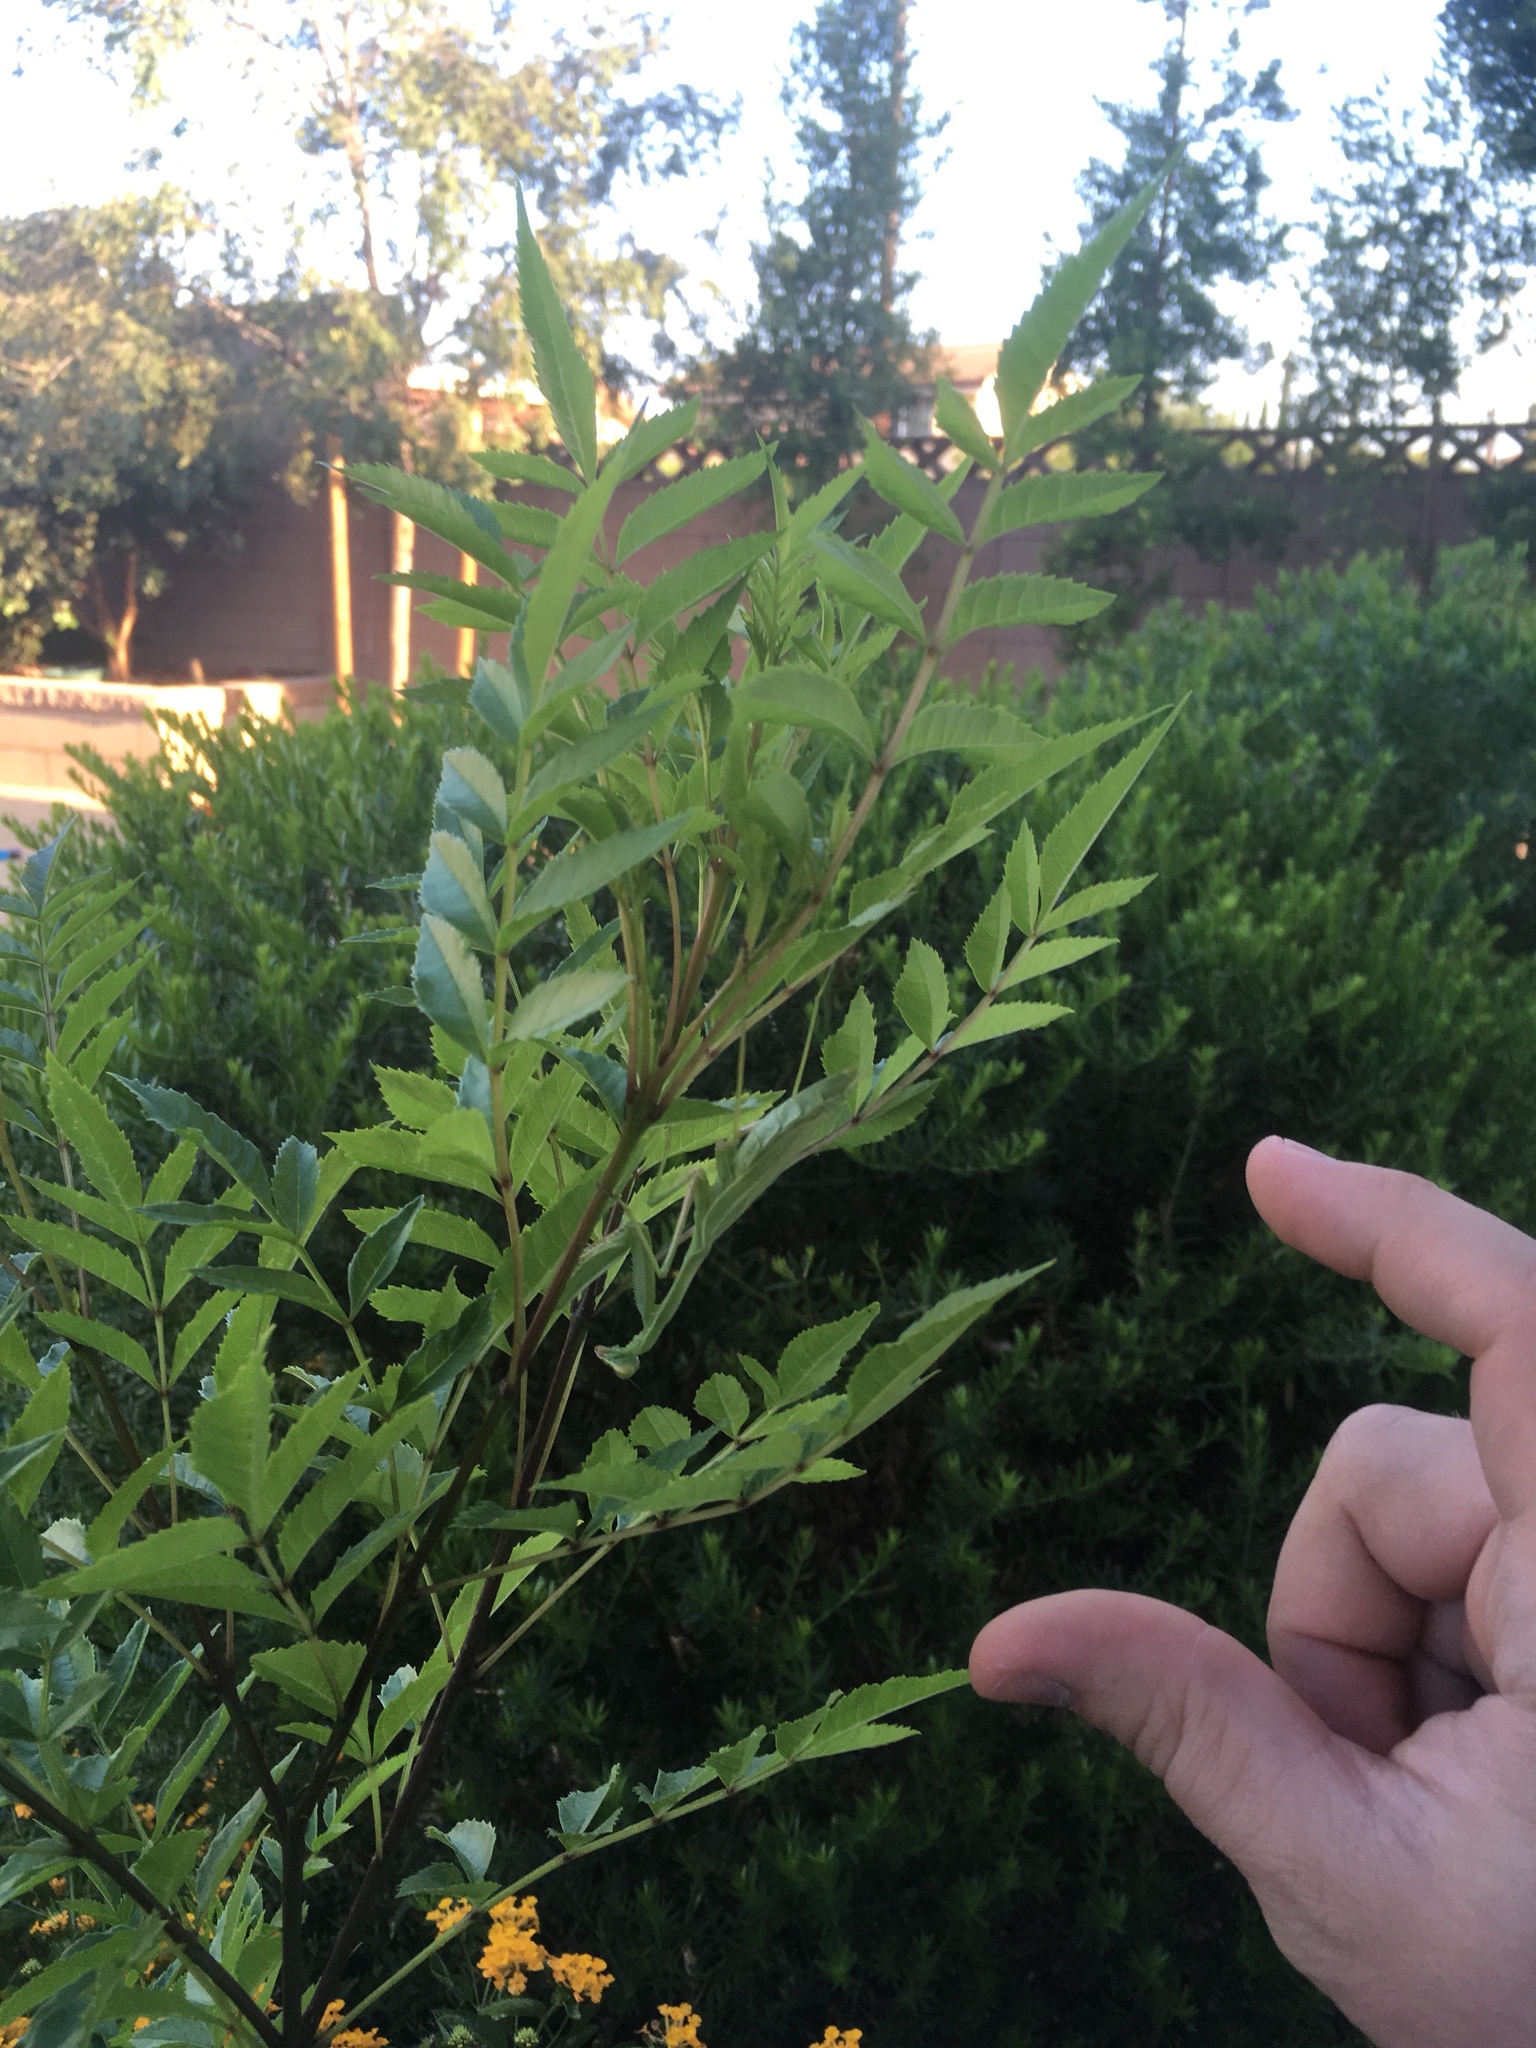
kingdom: Animalia
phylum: Arthropoda
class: Insecta
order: Mantodea
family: Mantidae
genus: Stagmomantis
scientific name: Stagmomantis limbata
